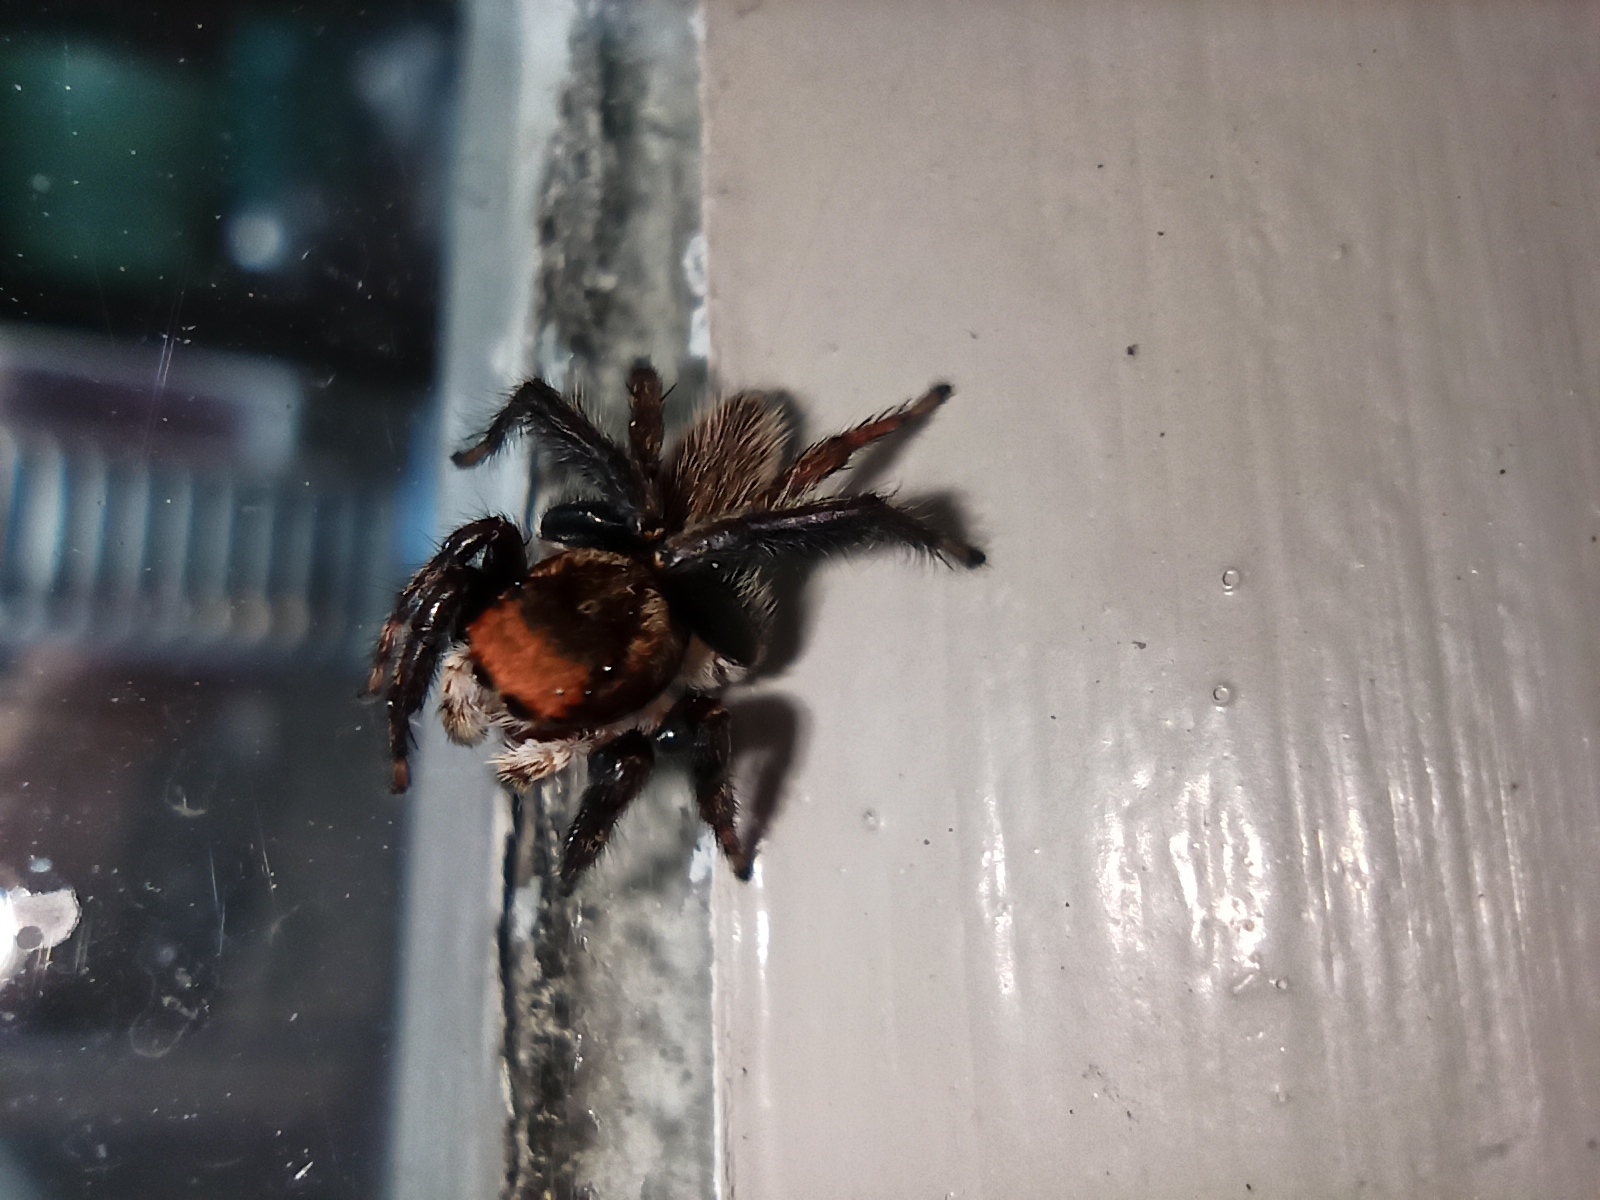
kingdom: Animalia
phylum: Arthropoda
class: Arachnida
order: Araneae
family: Salticidae
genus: Maratus
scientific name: Maratus griseus
